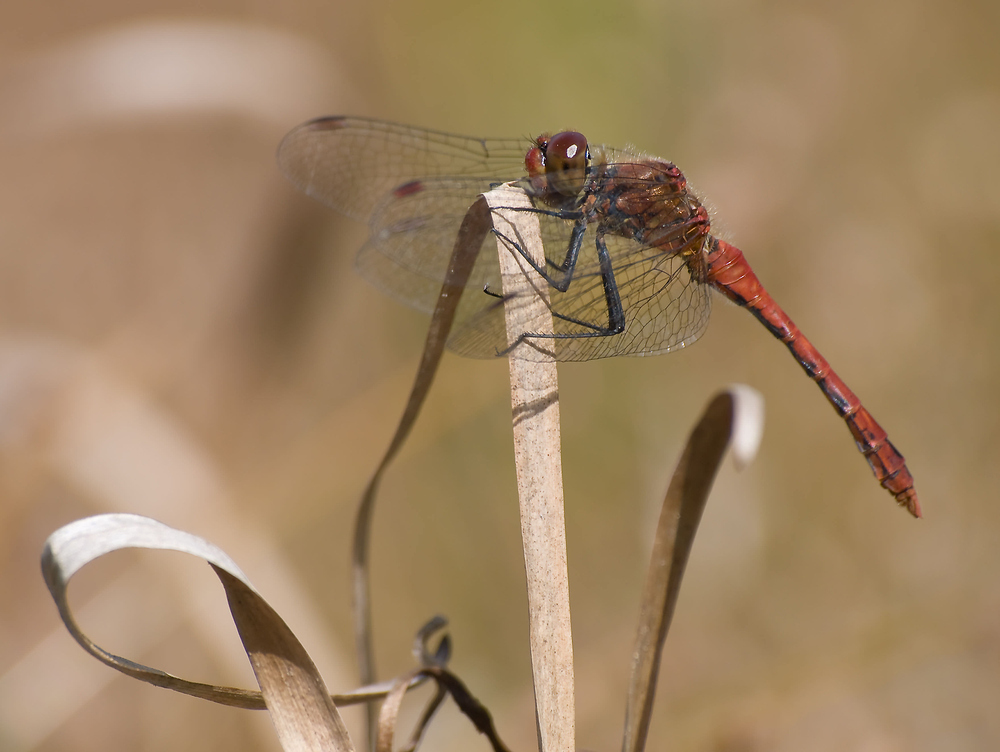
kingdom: Animalia
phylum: Arthropoda
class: Insecta
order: Odonata
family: Libellulidae
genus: Sympetrum
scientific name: Sympetrum sanguineum
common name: Ruddy darter
